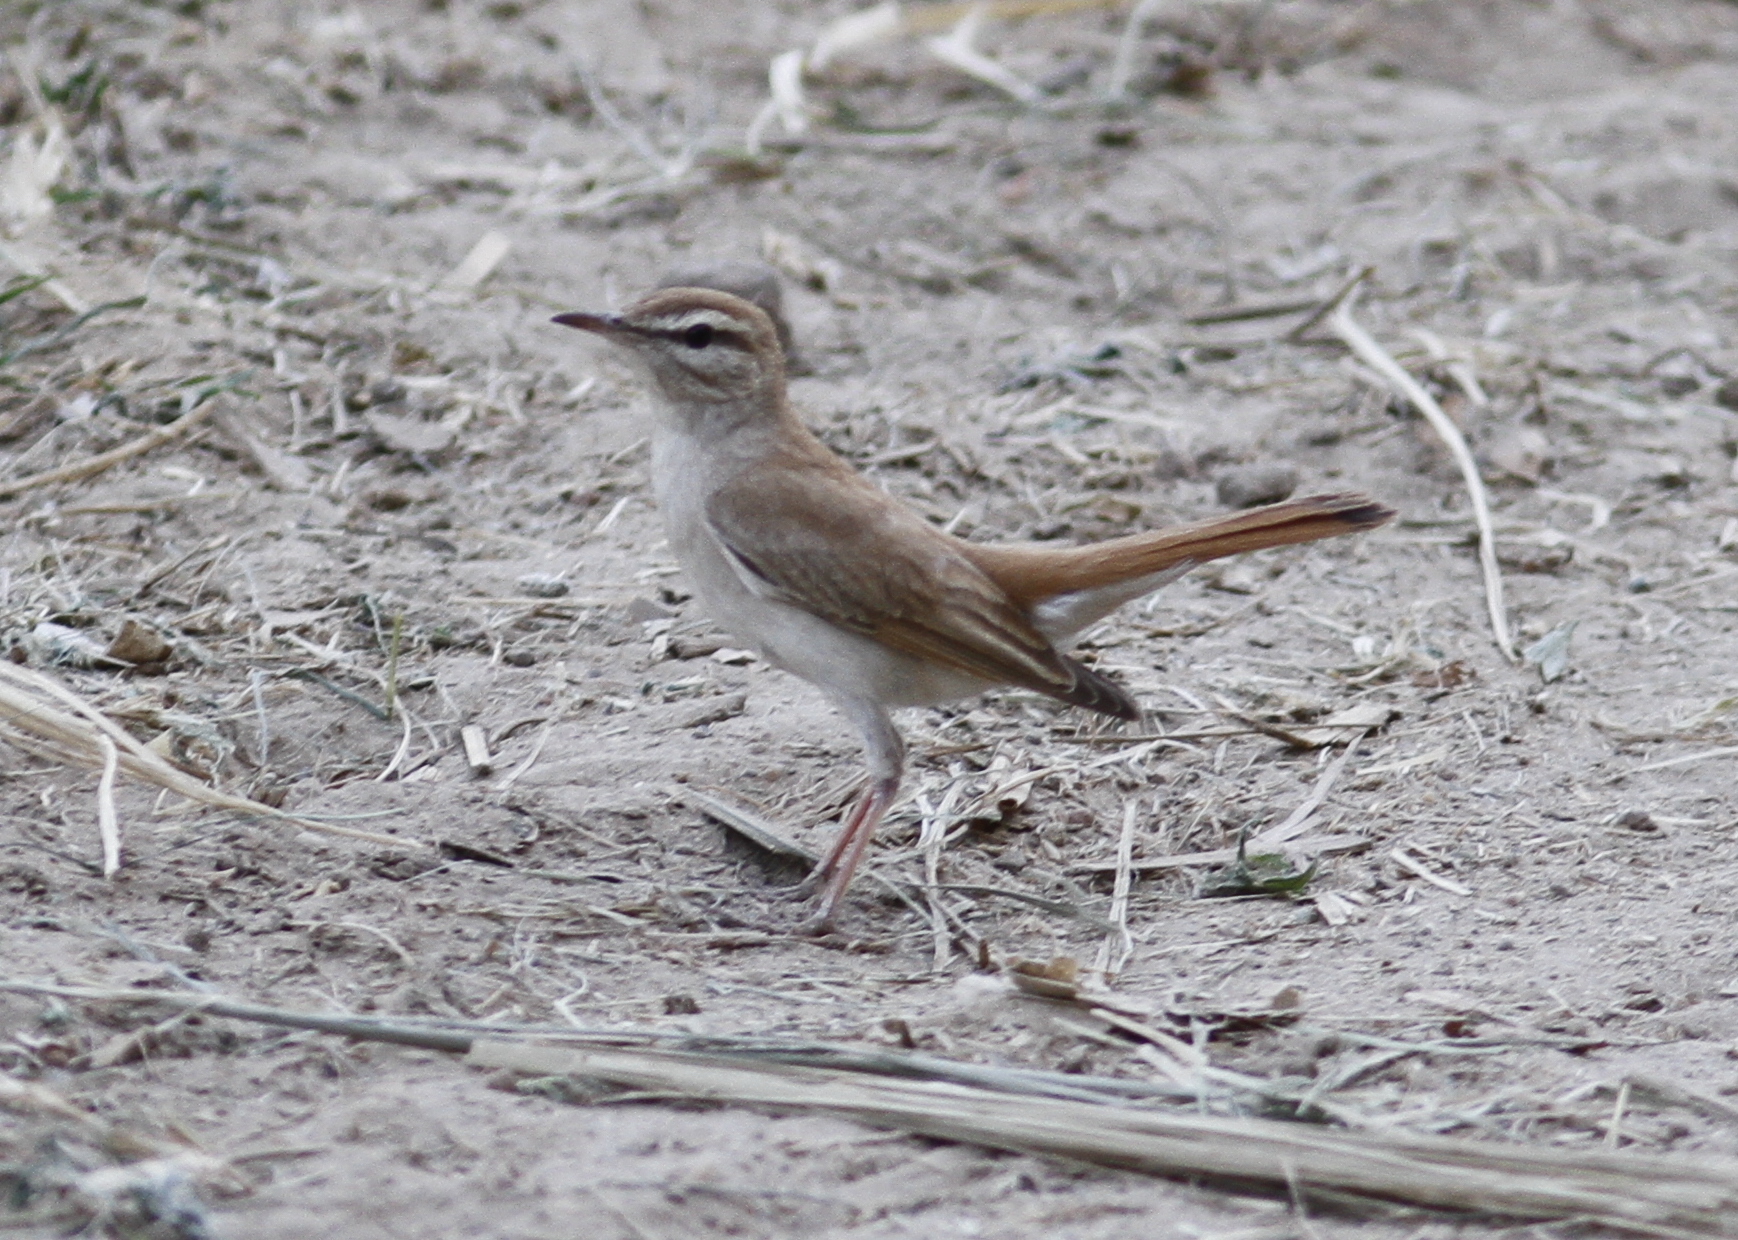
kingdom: Animalia
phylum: Chordata
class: Aves
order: Passeriformes
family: Muscicapidae
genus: Erythropygia
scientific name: Erythropygia galactotes
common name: Rufous-tailed scrub robin
